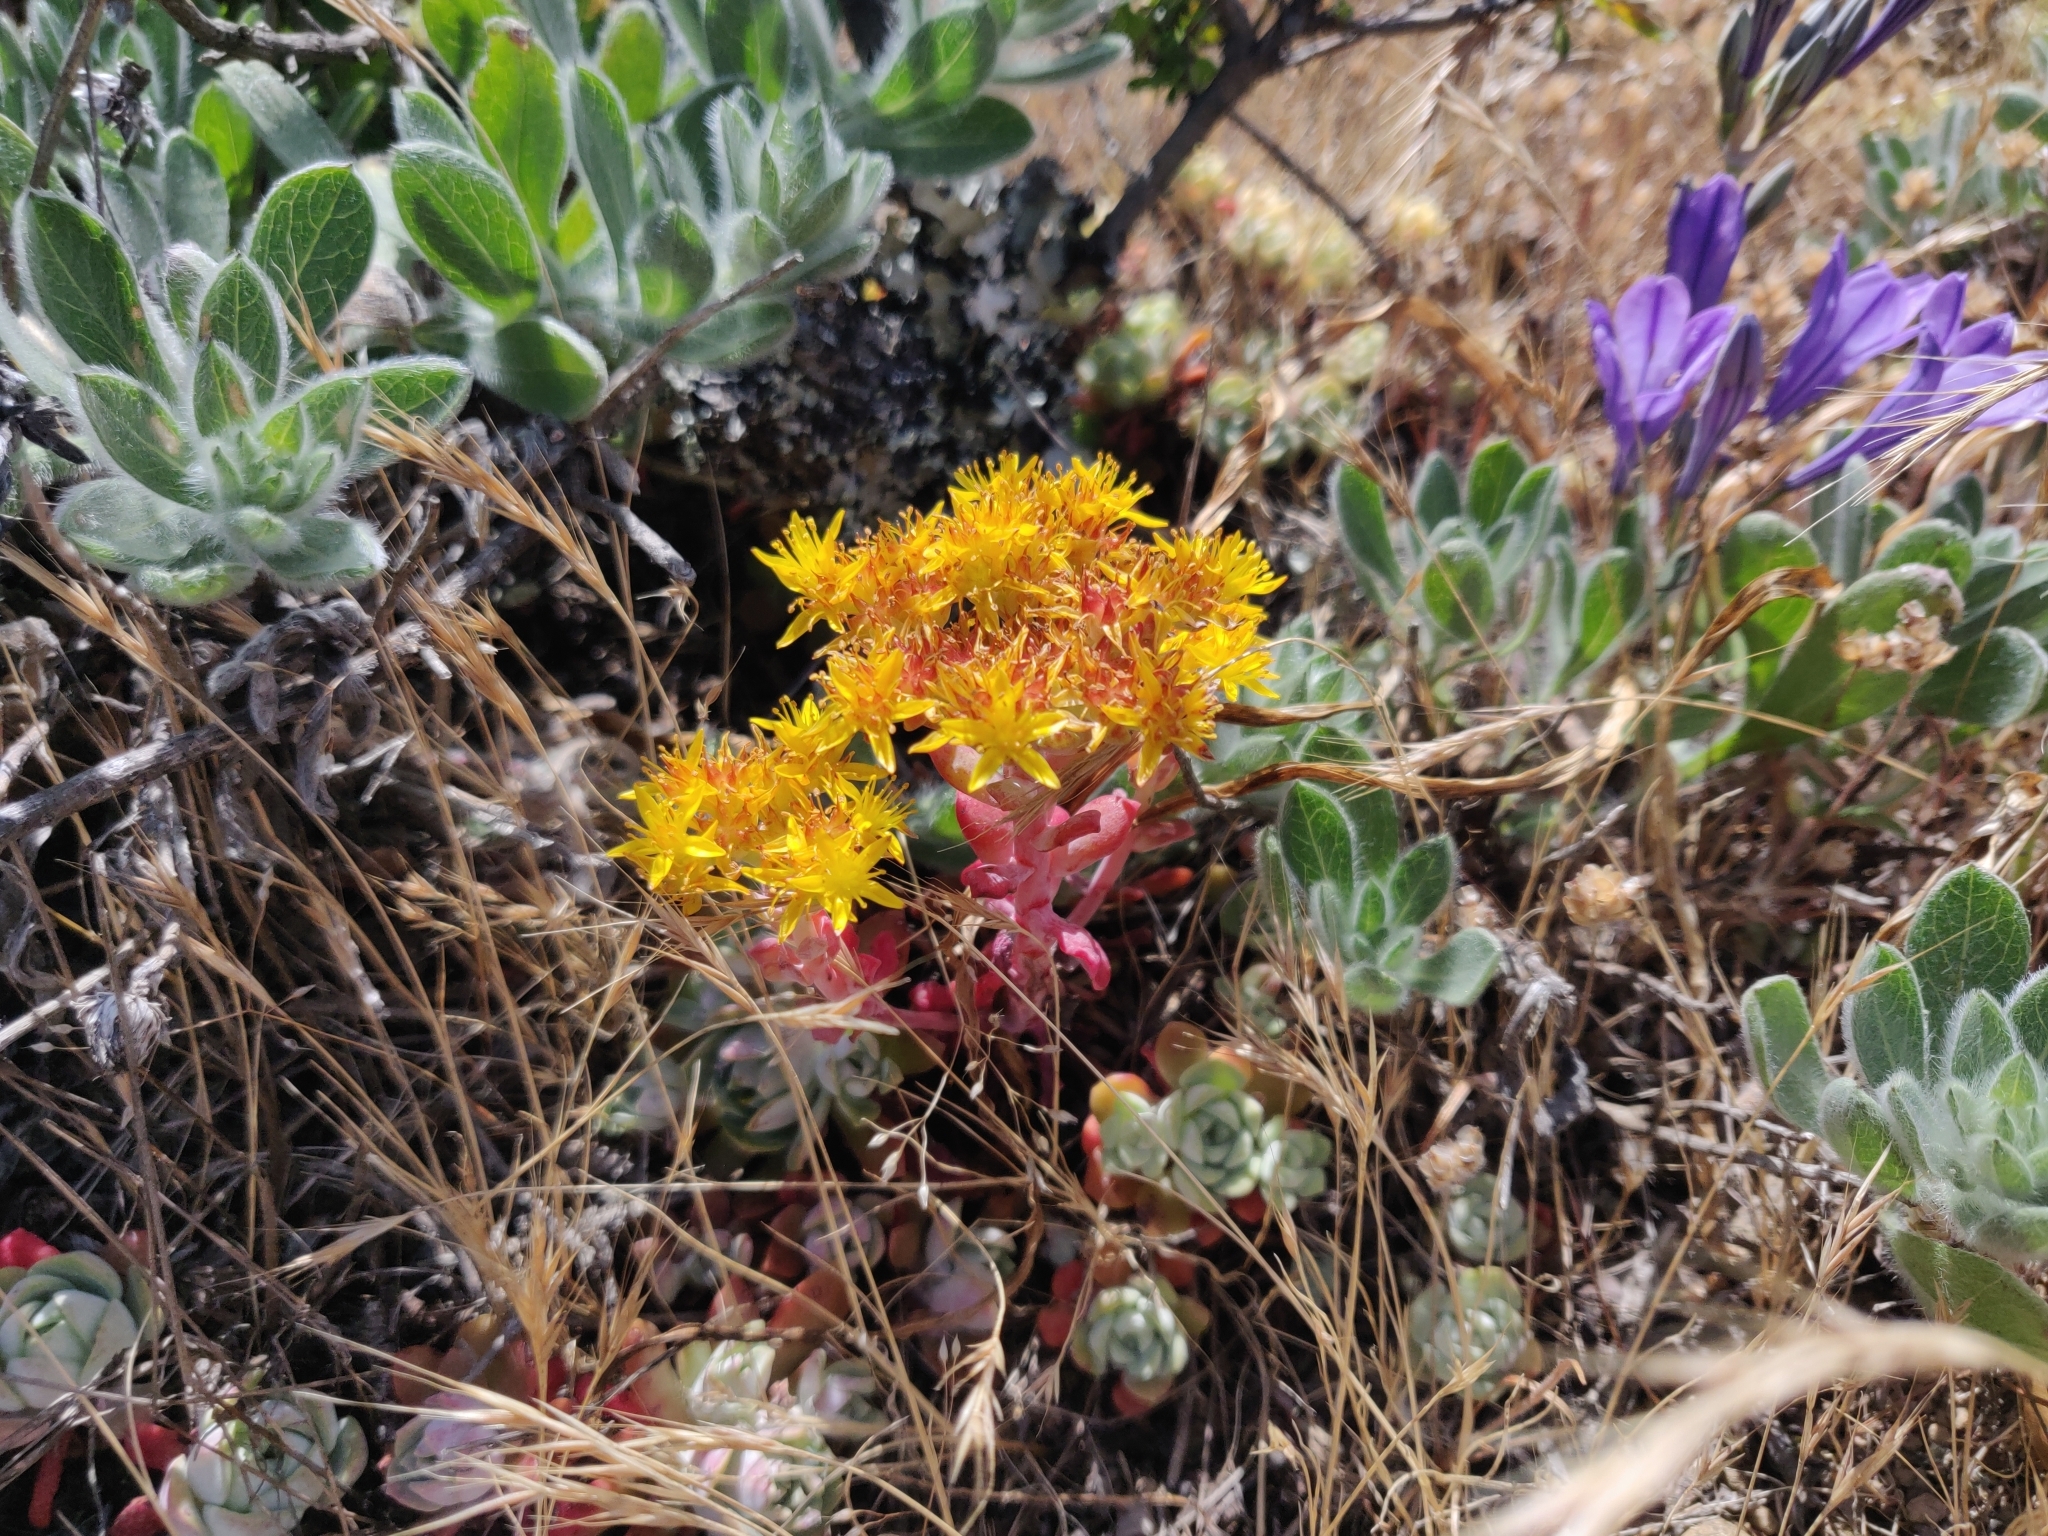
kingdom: Plantae
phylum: Tracheophyta
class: Magnoliopsida
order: Saxifragales
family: Crassulaceae
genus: Sedum
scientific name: Sedum spathulifolium
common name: Colorado stonecrop
